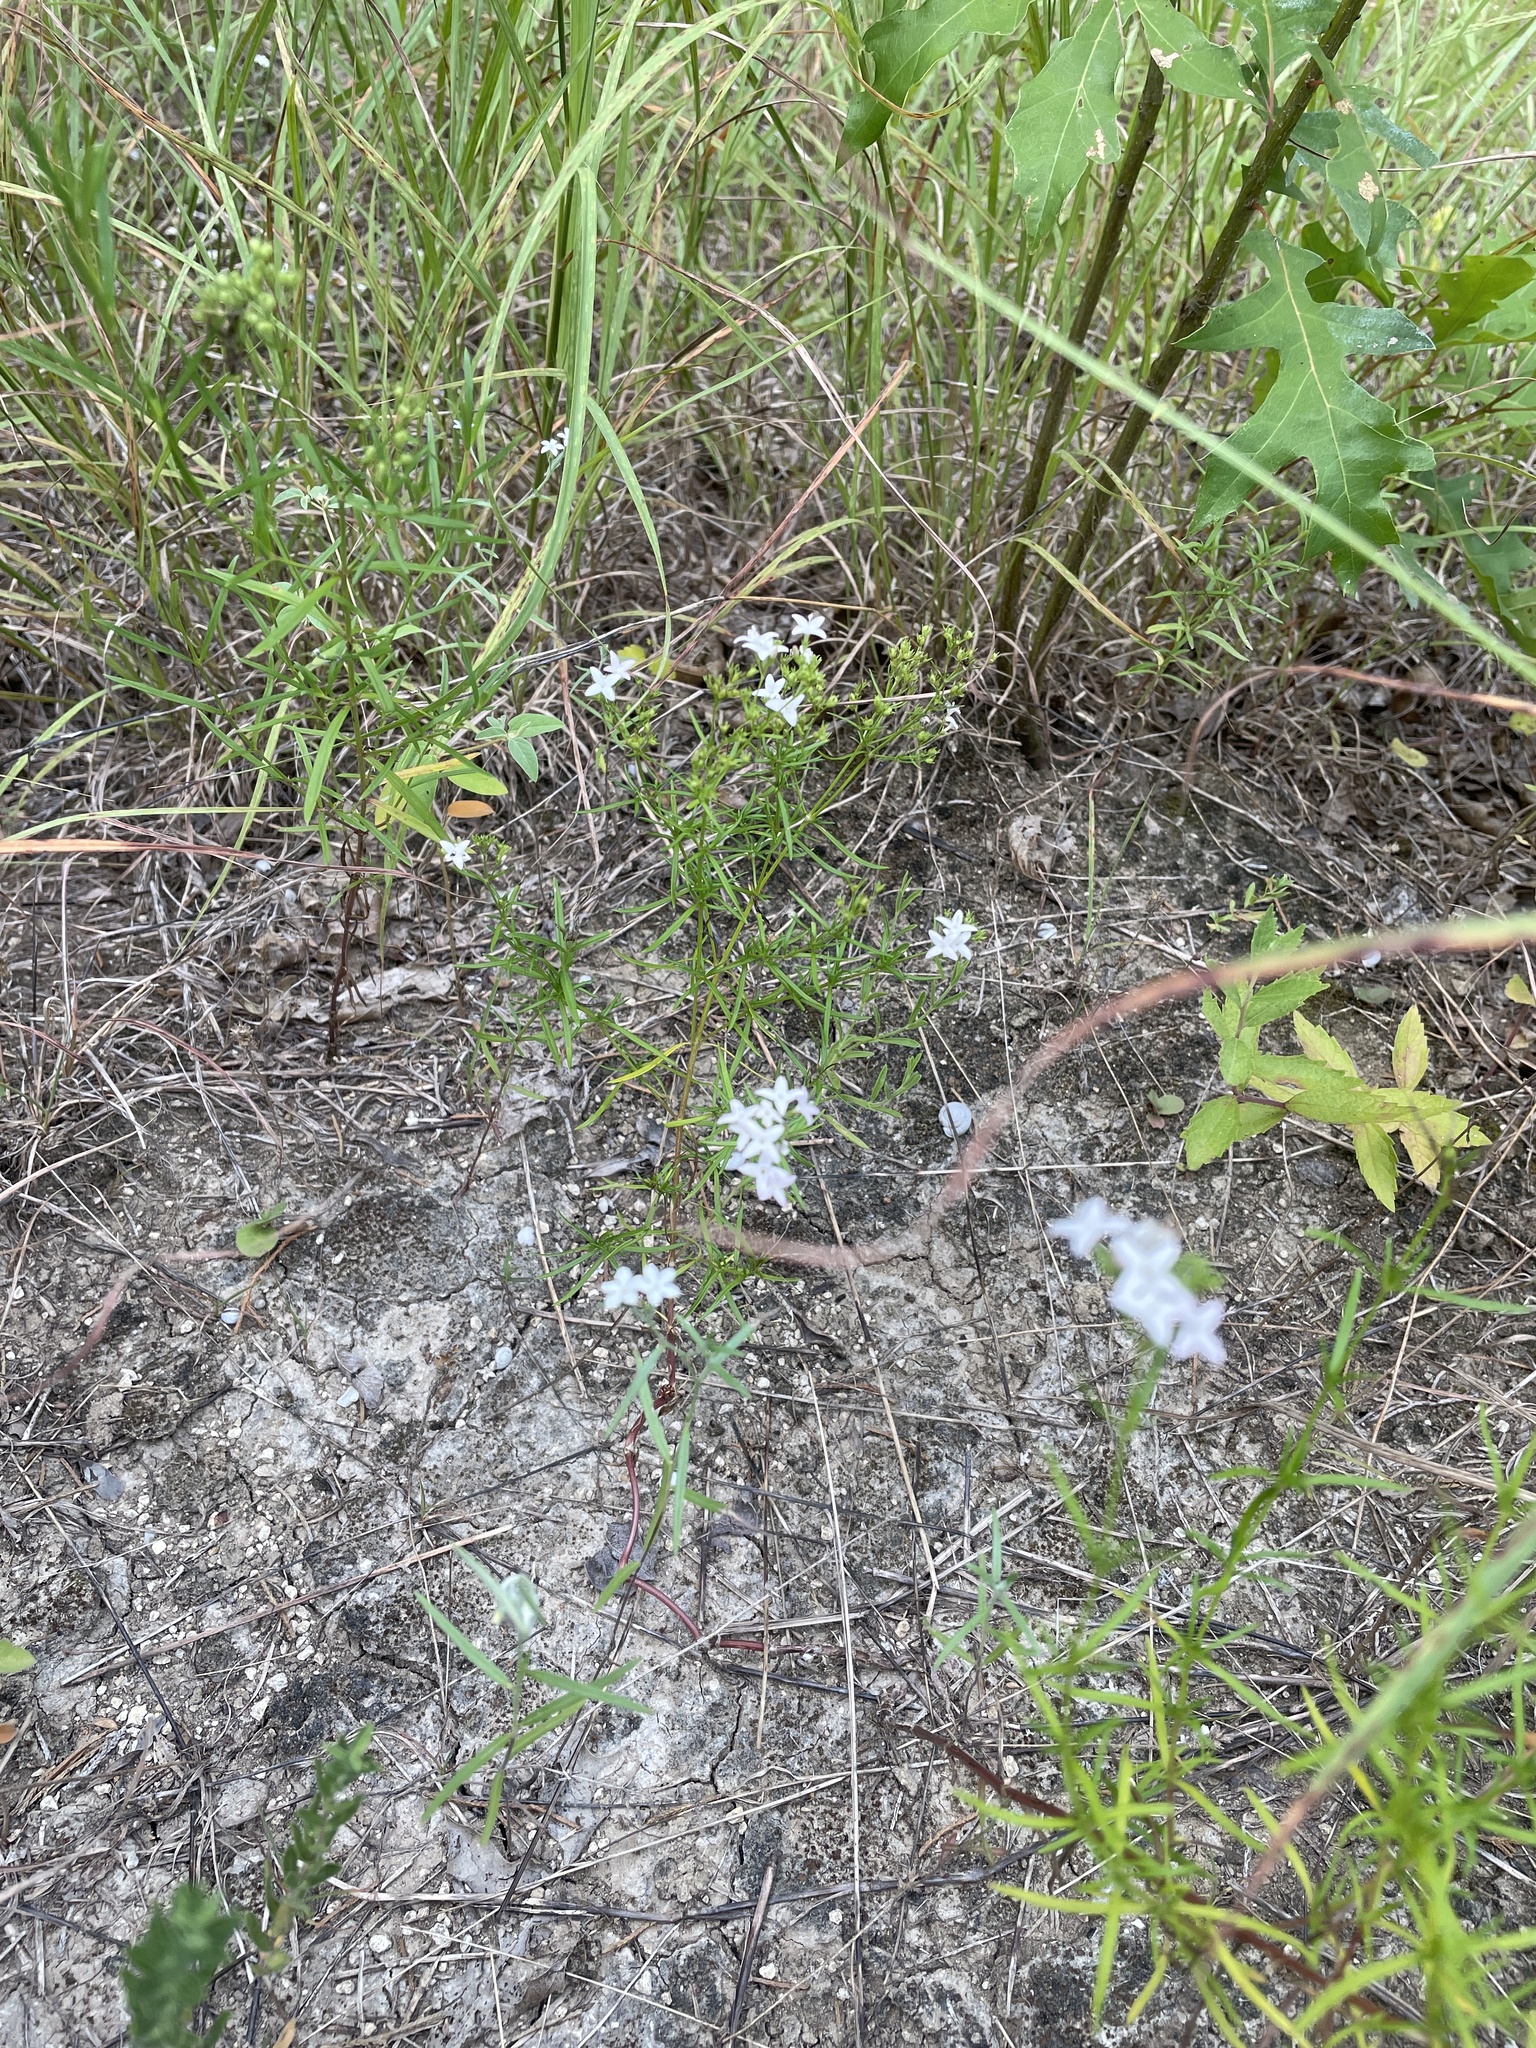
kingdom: Plantae
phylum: Tracheophyta
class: Magnoliopsida
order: Gentianales
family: Rubiaceae
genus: Stenaria
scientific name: Stenaria nigricans
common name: Diamondflowers
